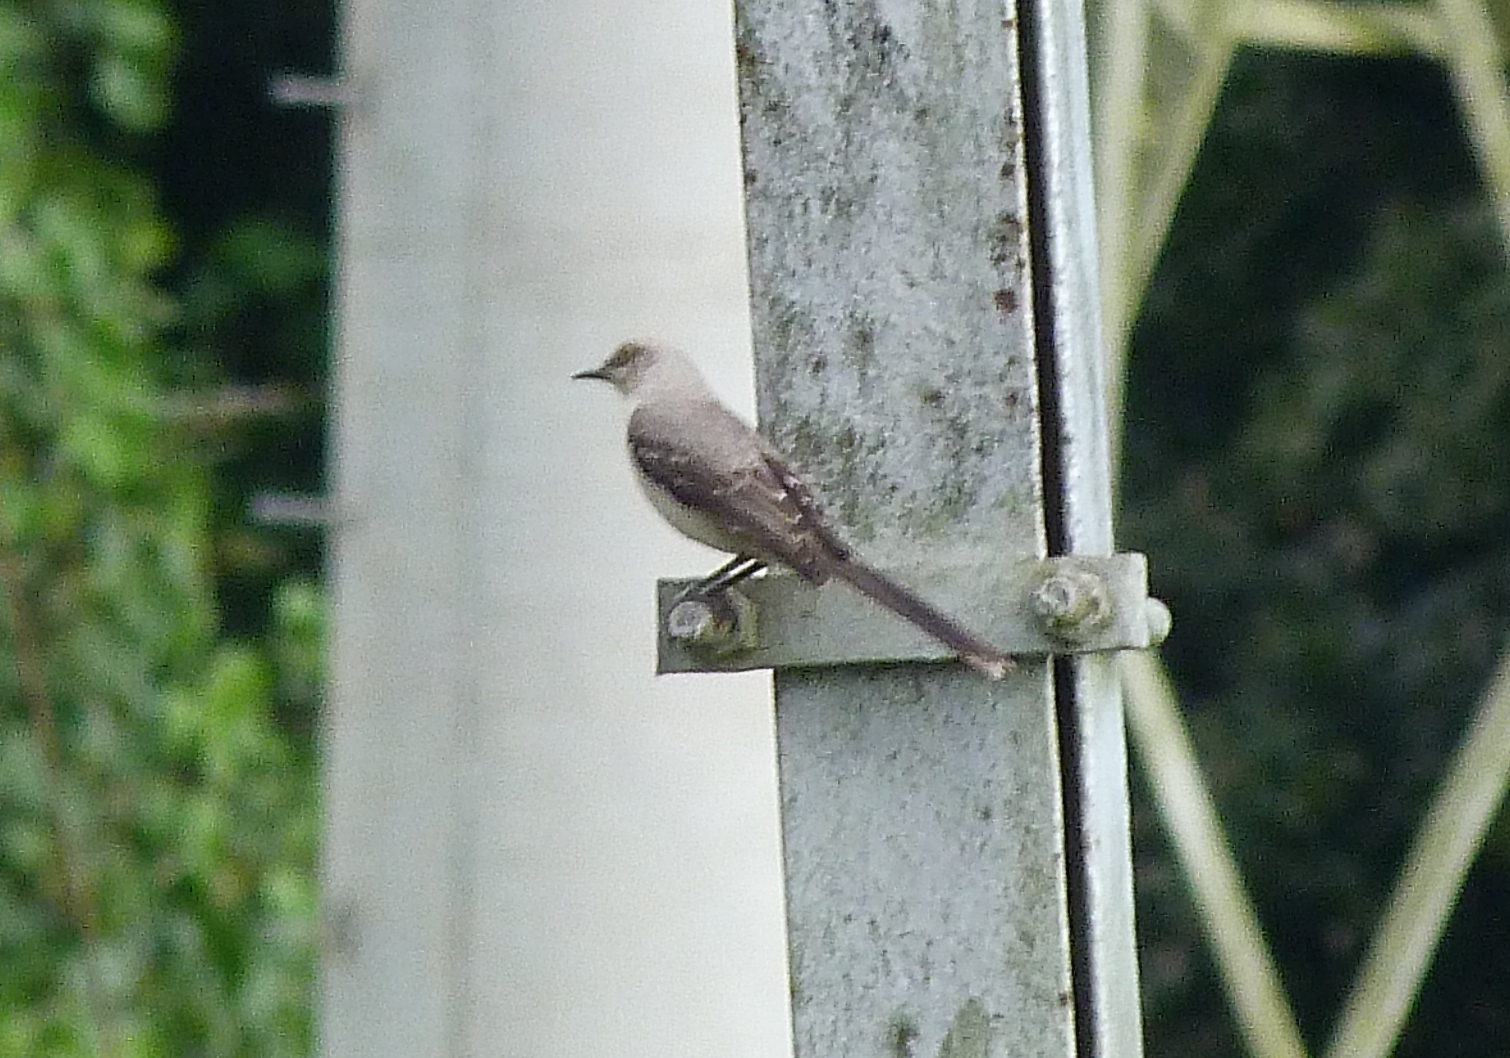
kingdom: Animalia
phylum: Chordata
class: Aves
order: Passeriformes
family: Mimidae
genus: Mimus
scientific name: Mimus gilvus
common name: Tropical mockingbird
